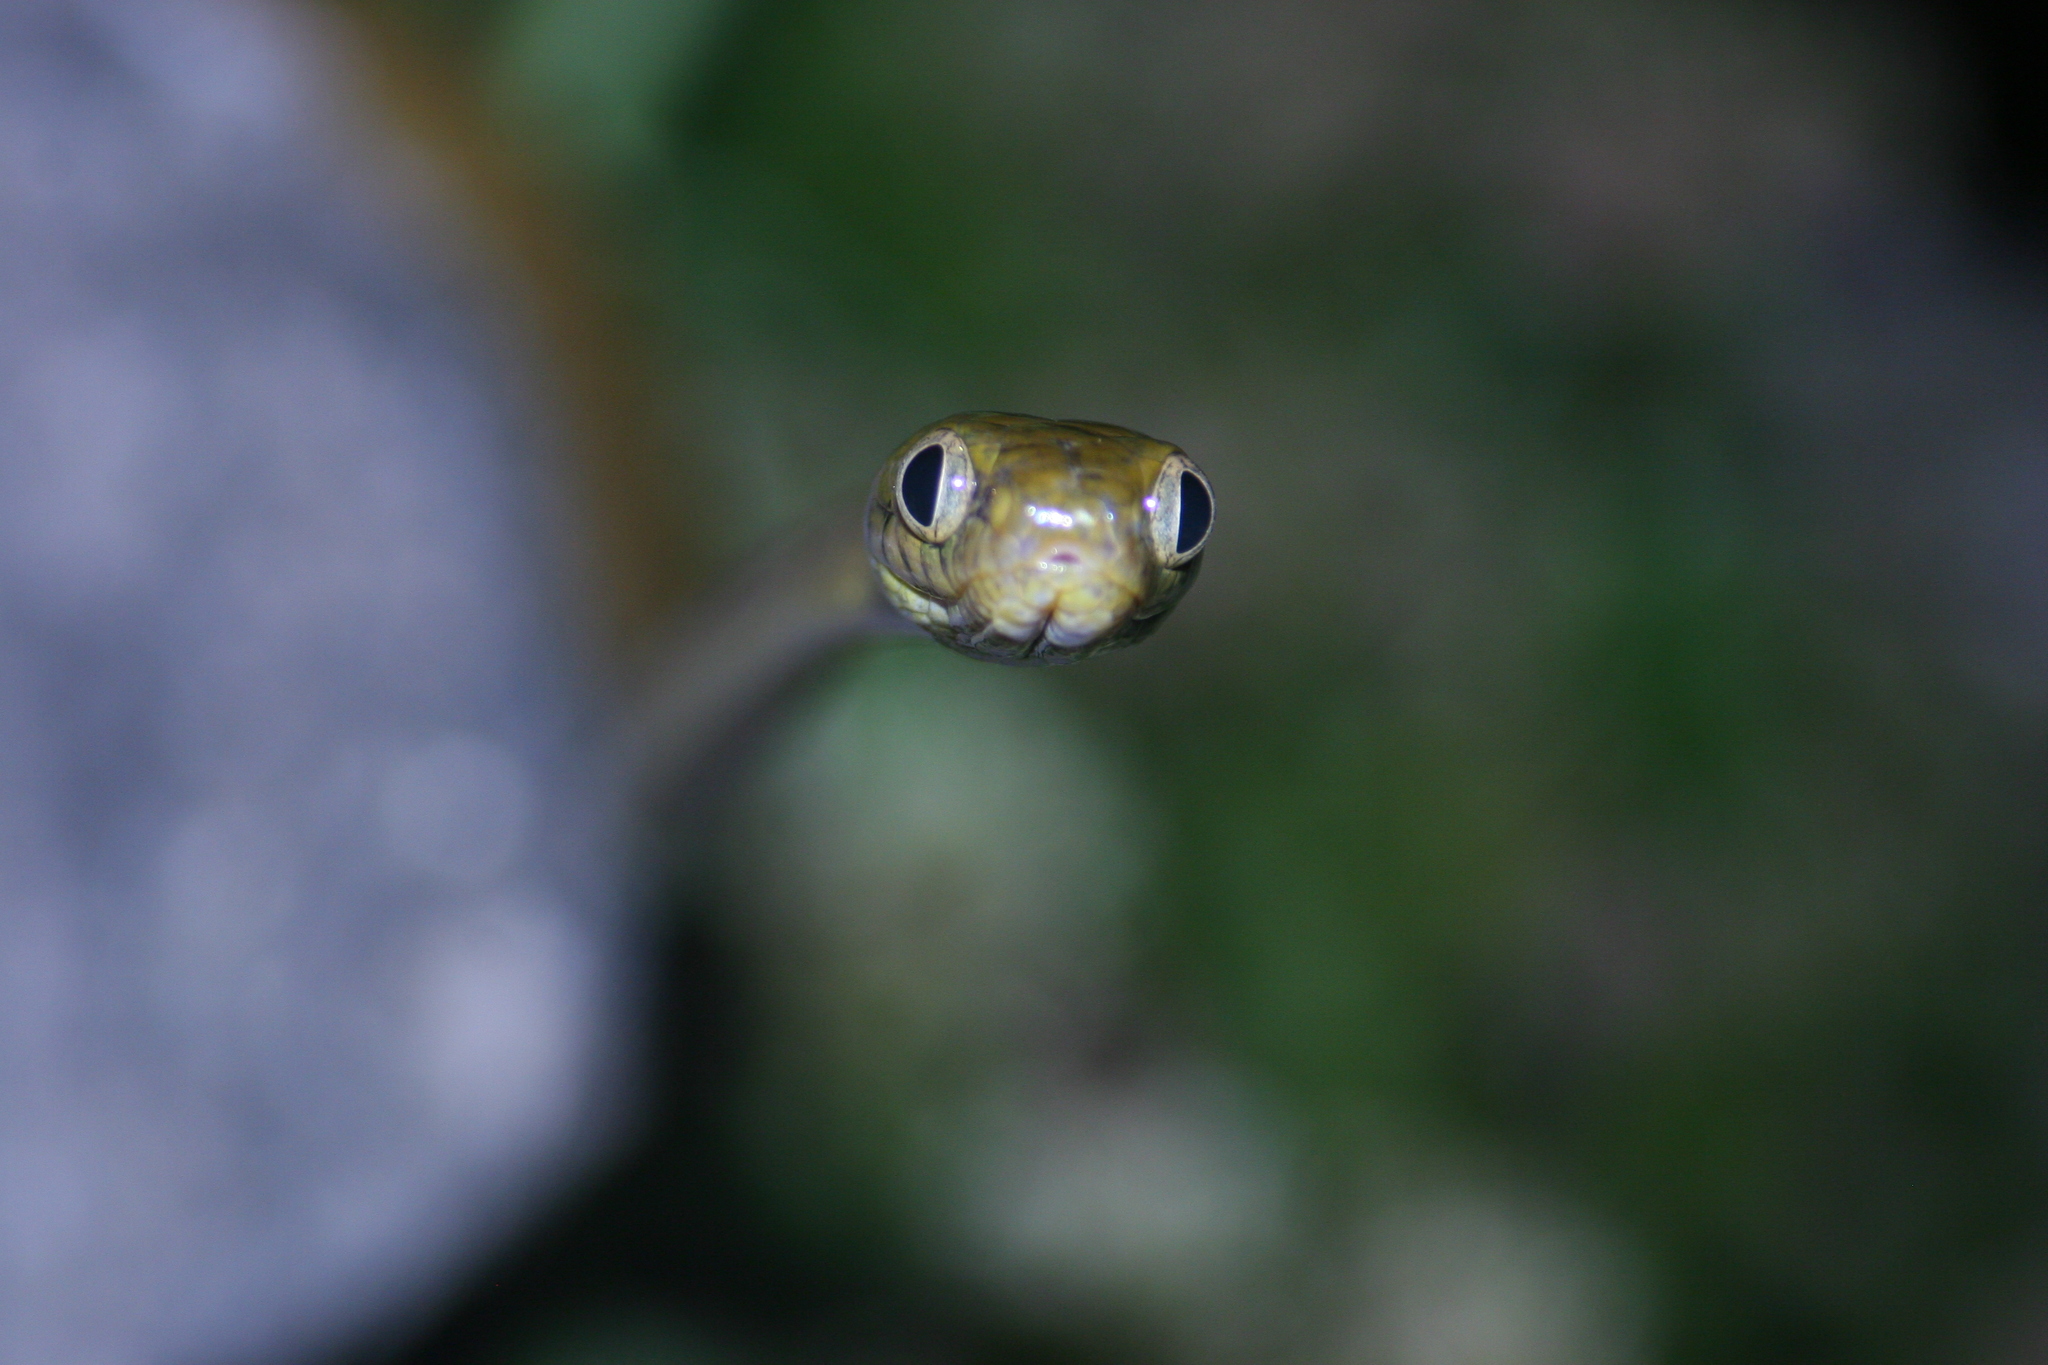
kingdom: Animalia
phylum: Chordata
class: Squamata
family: Colubridae
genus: Boiga
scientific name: Boiga irregularis
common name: Brown tree snake
